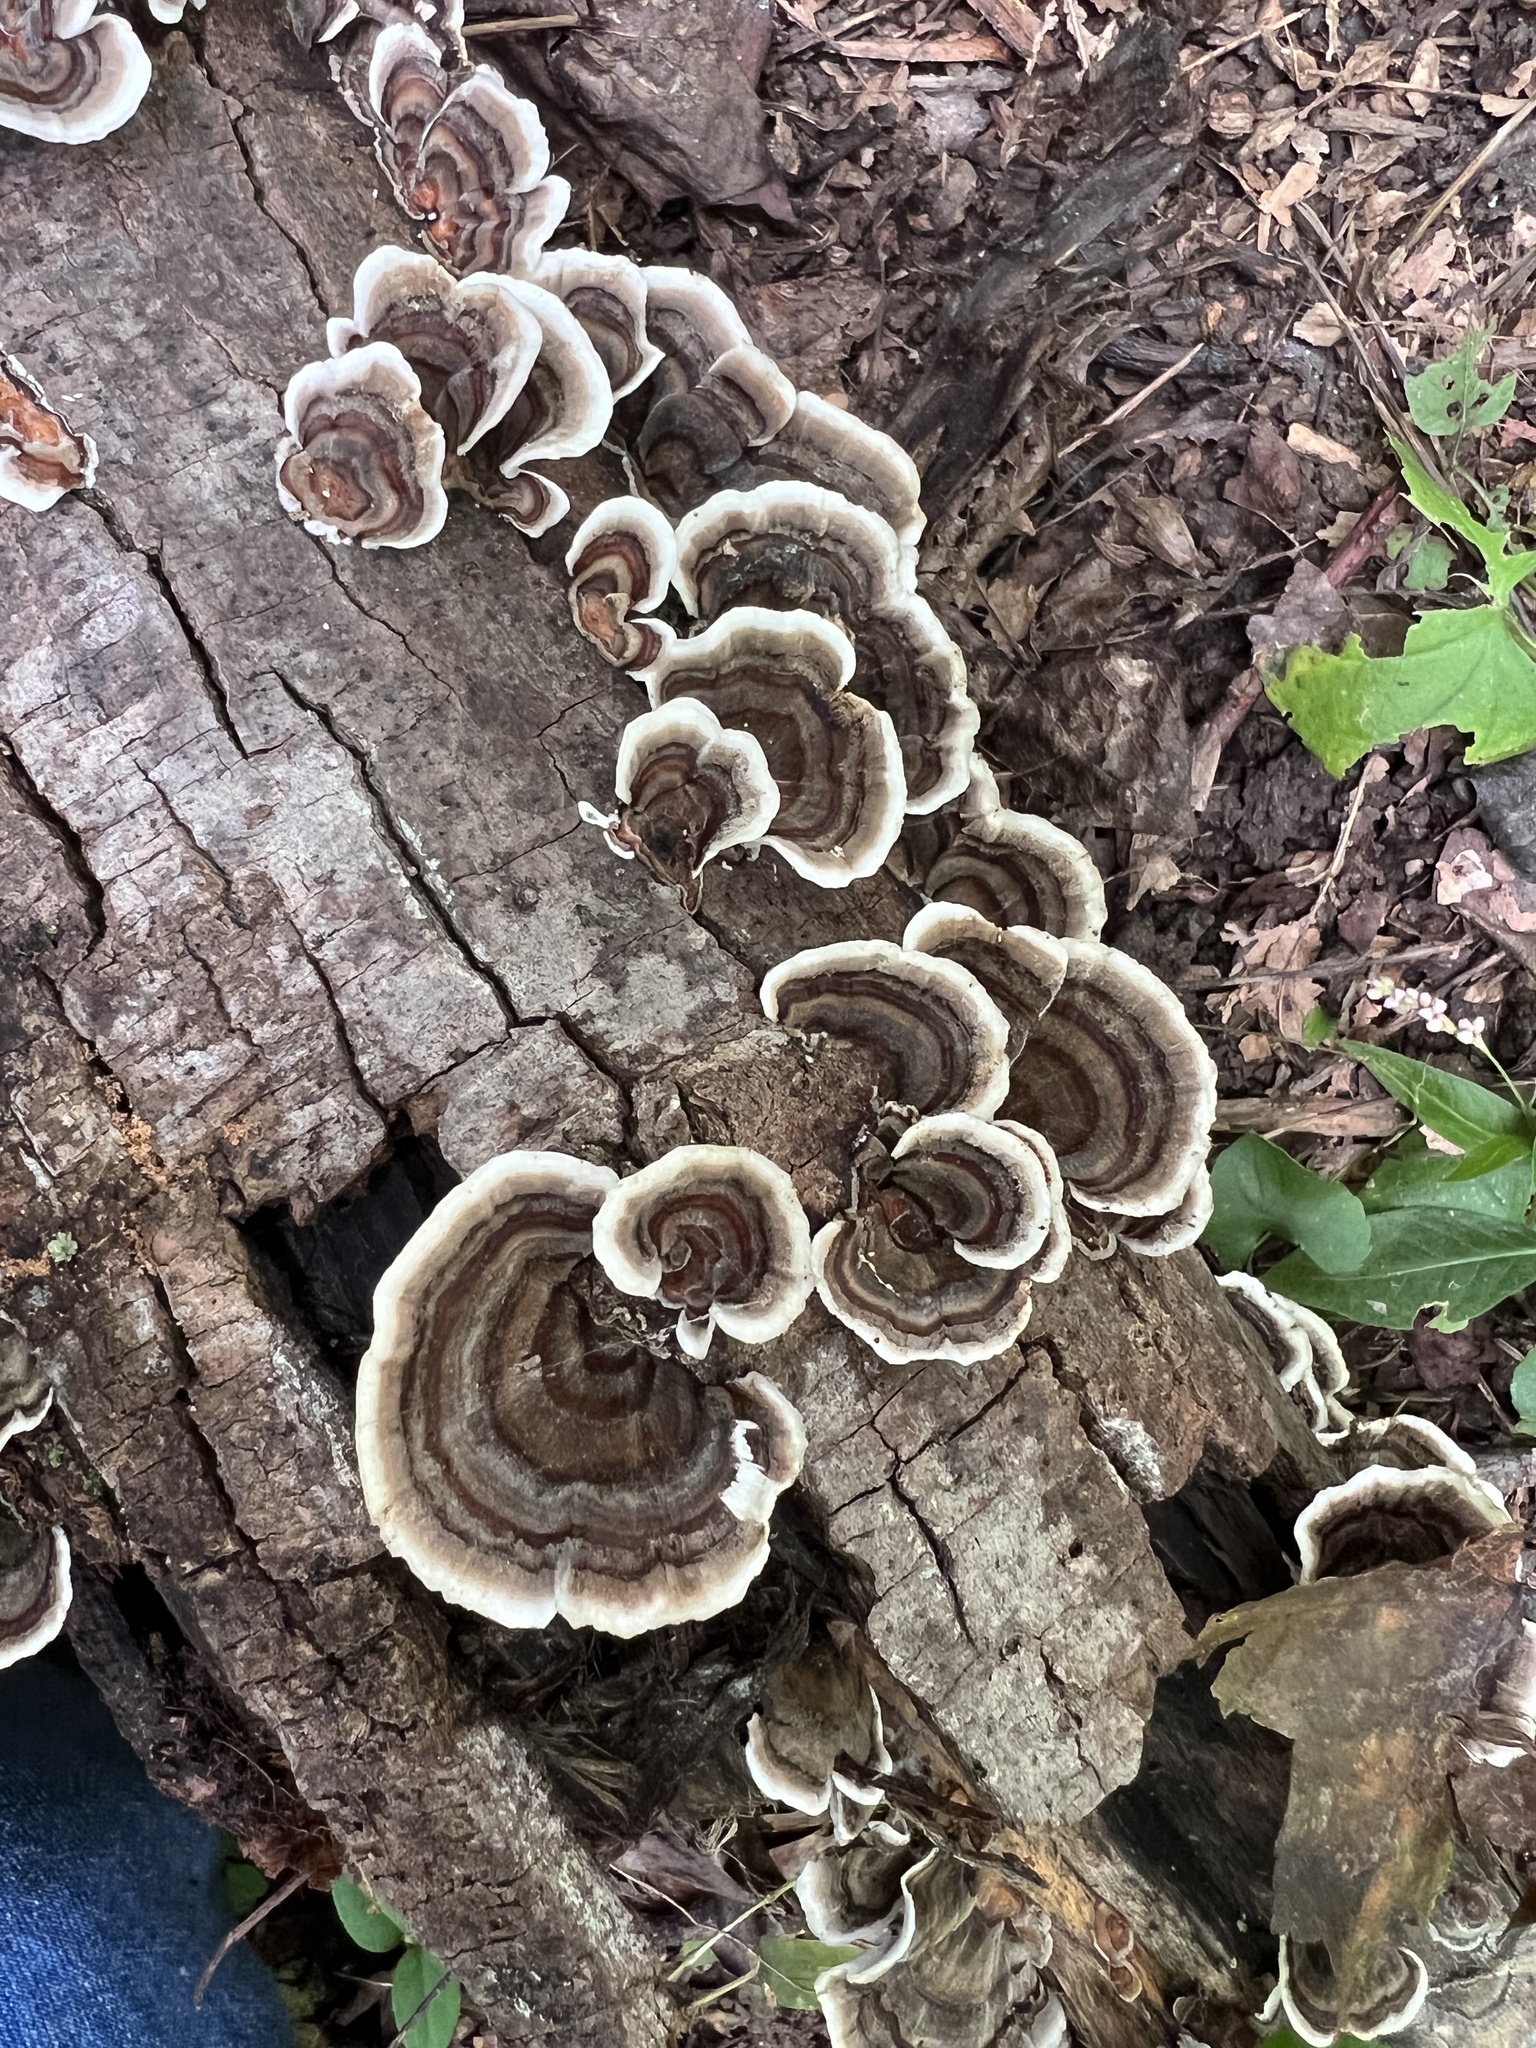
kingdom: Fungi
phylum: Basidiomycota
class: Agaricomycetes
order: Polyporales
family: Polyporaceae
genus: Trametes
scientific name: Trametes versicolor
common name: Turkeytail
